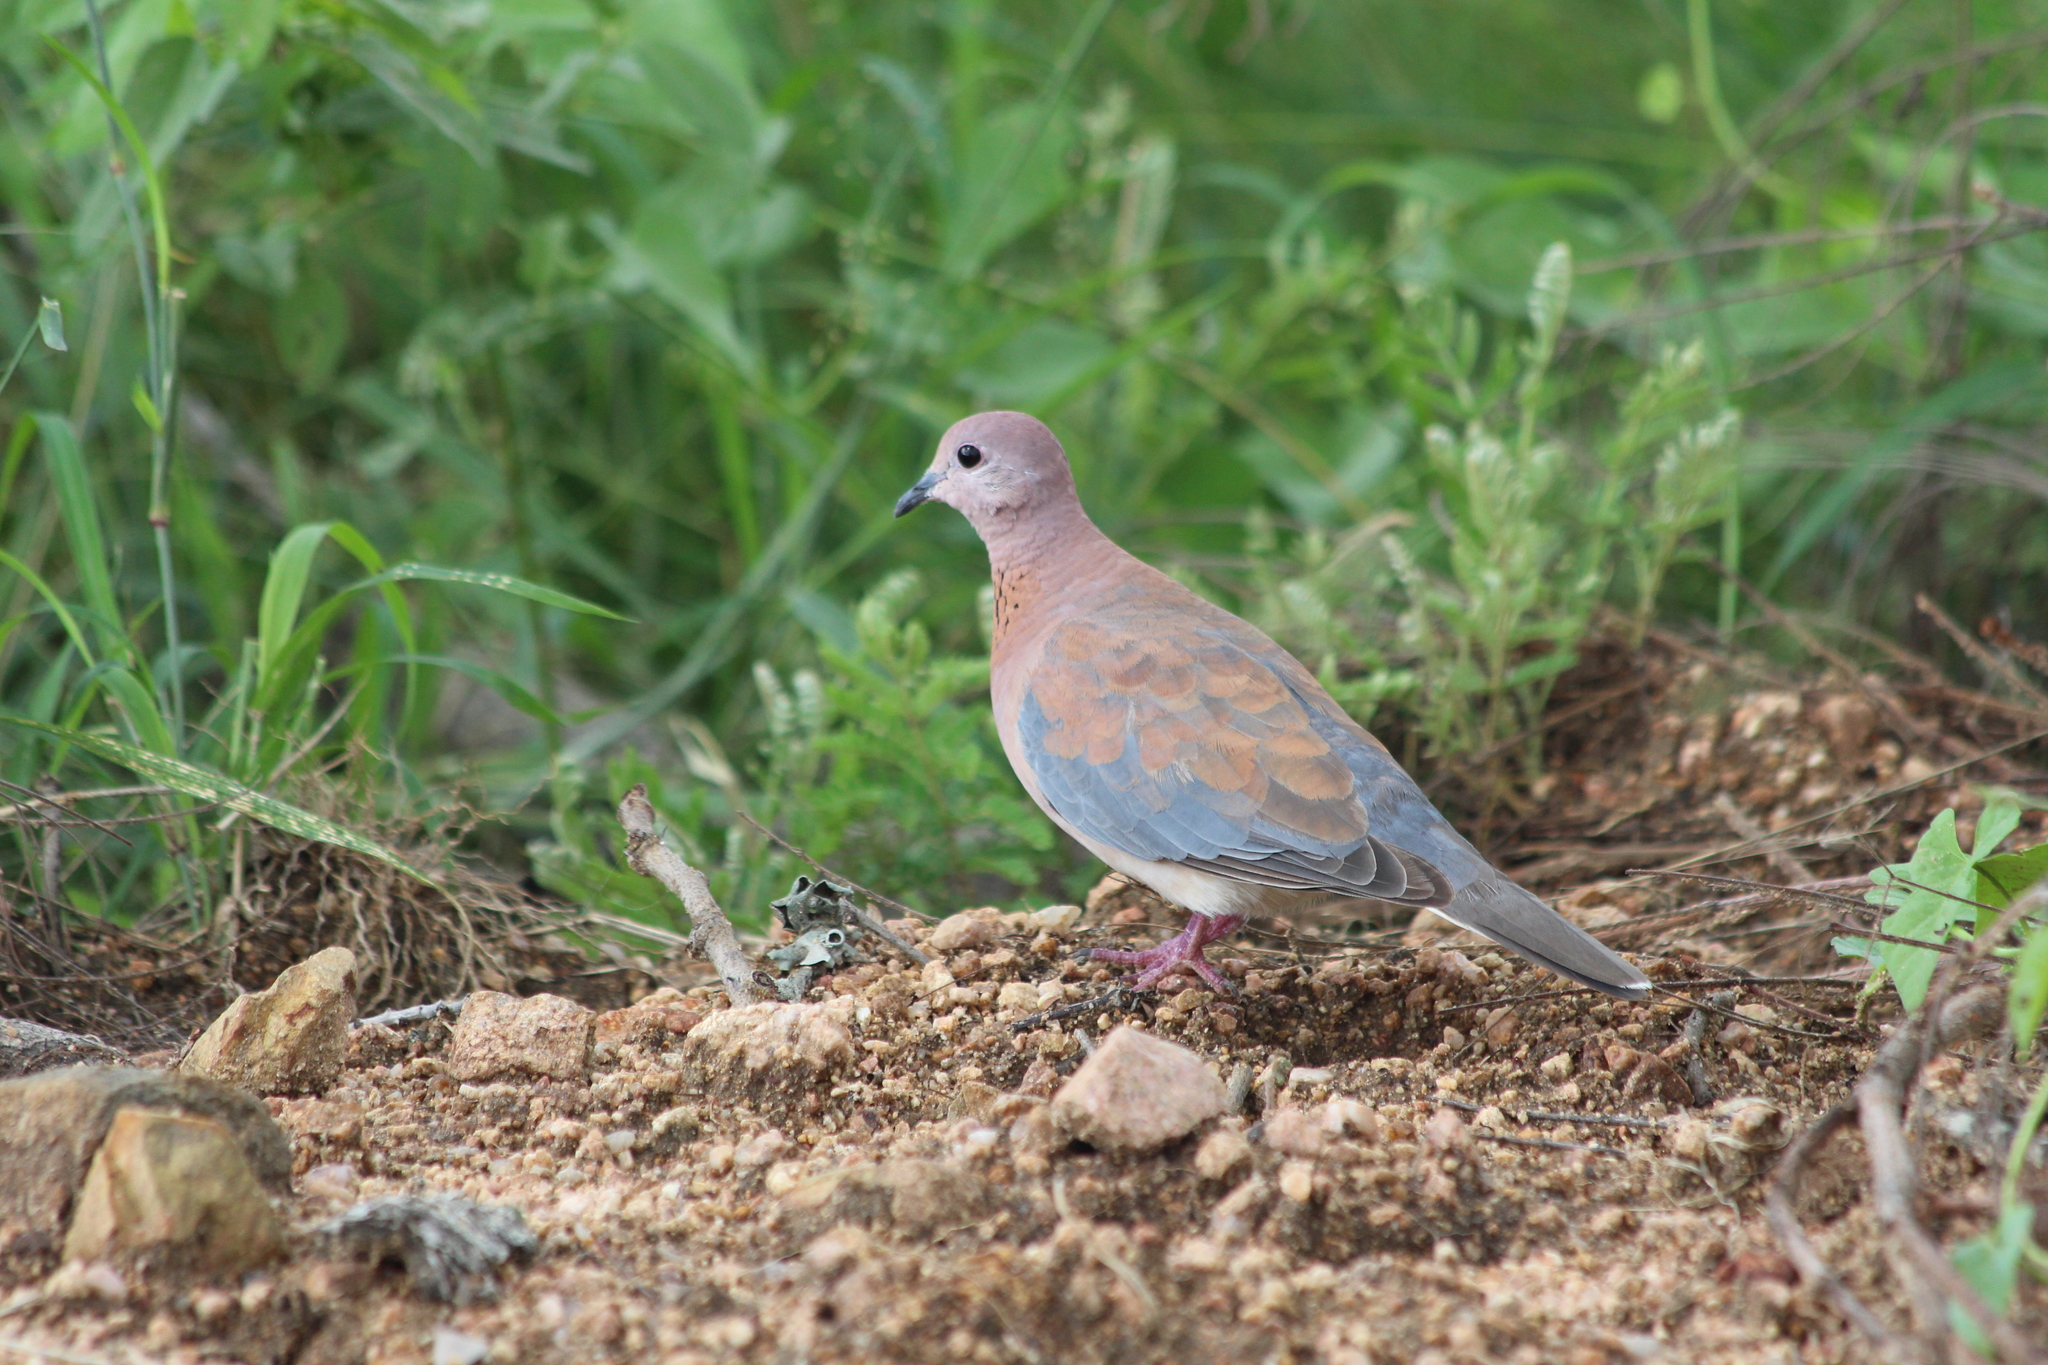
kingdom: Animalia
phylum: Chordata
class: Aves
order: Columbiformes
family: Columbidae
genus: Spilopelia
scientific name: Spilopelia senegalensis
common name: Laughing dove
